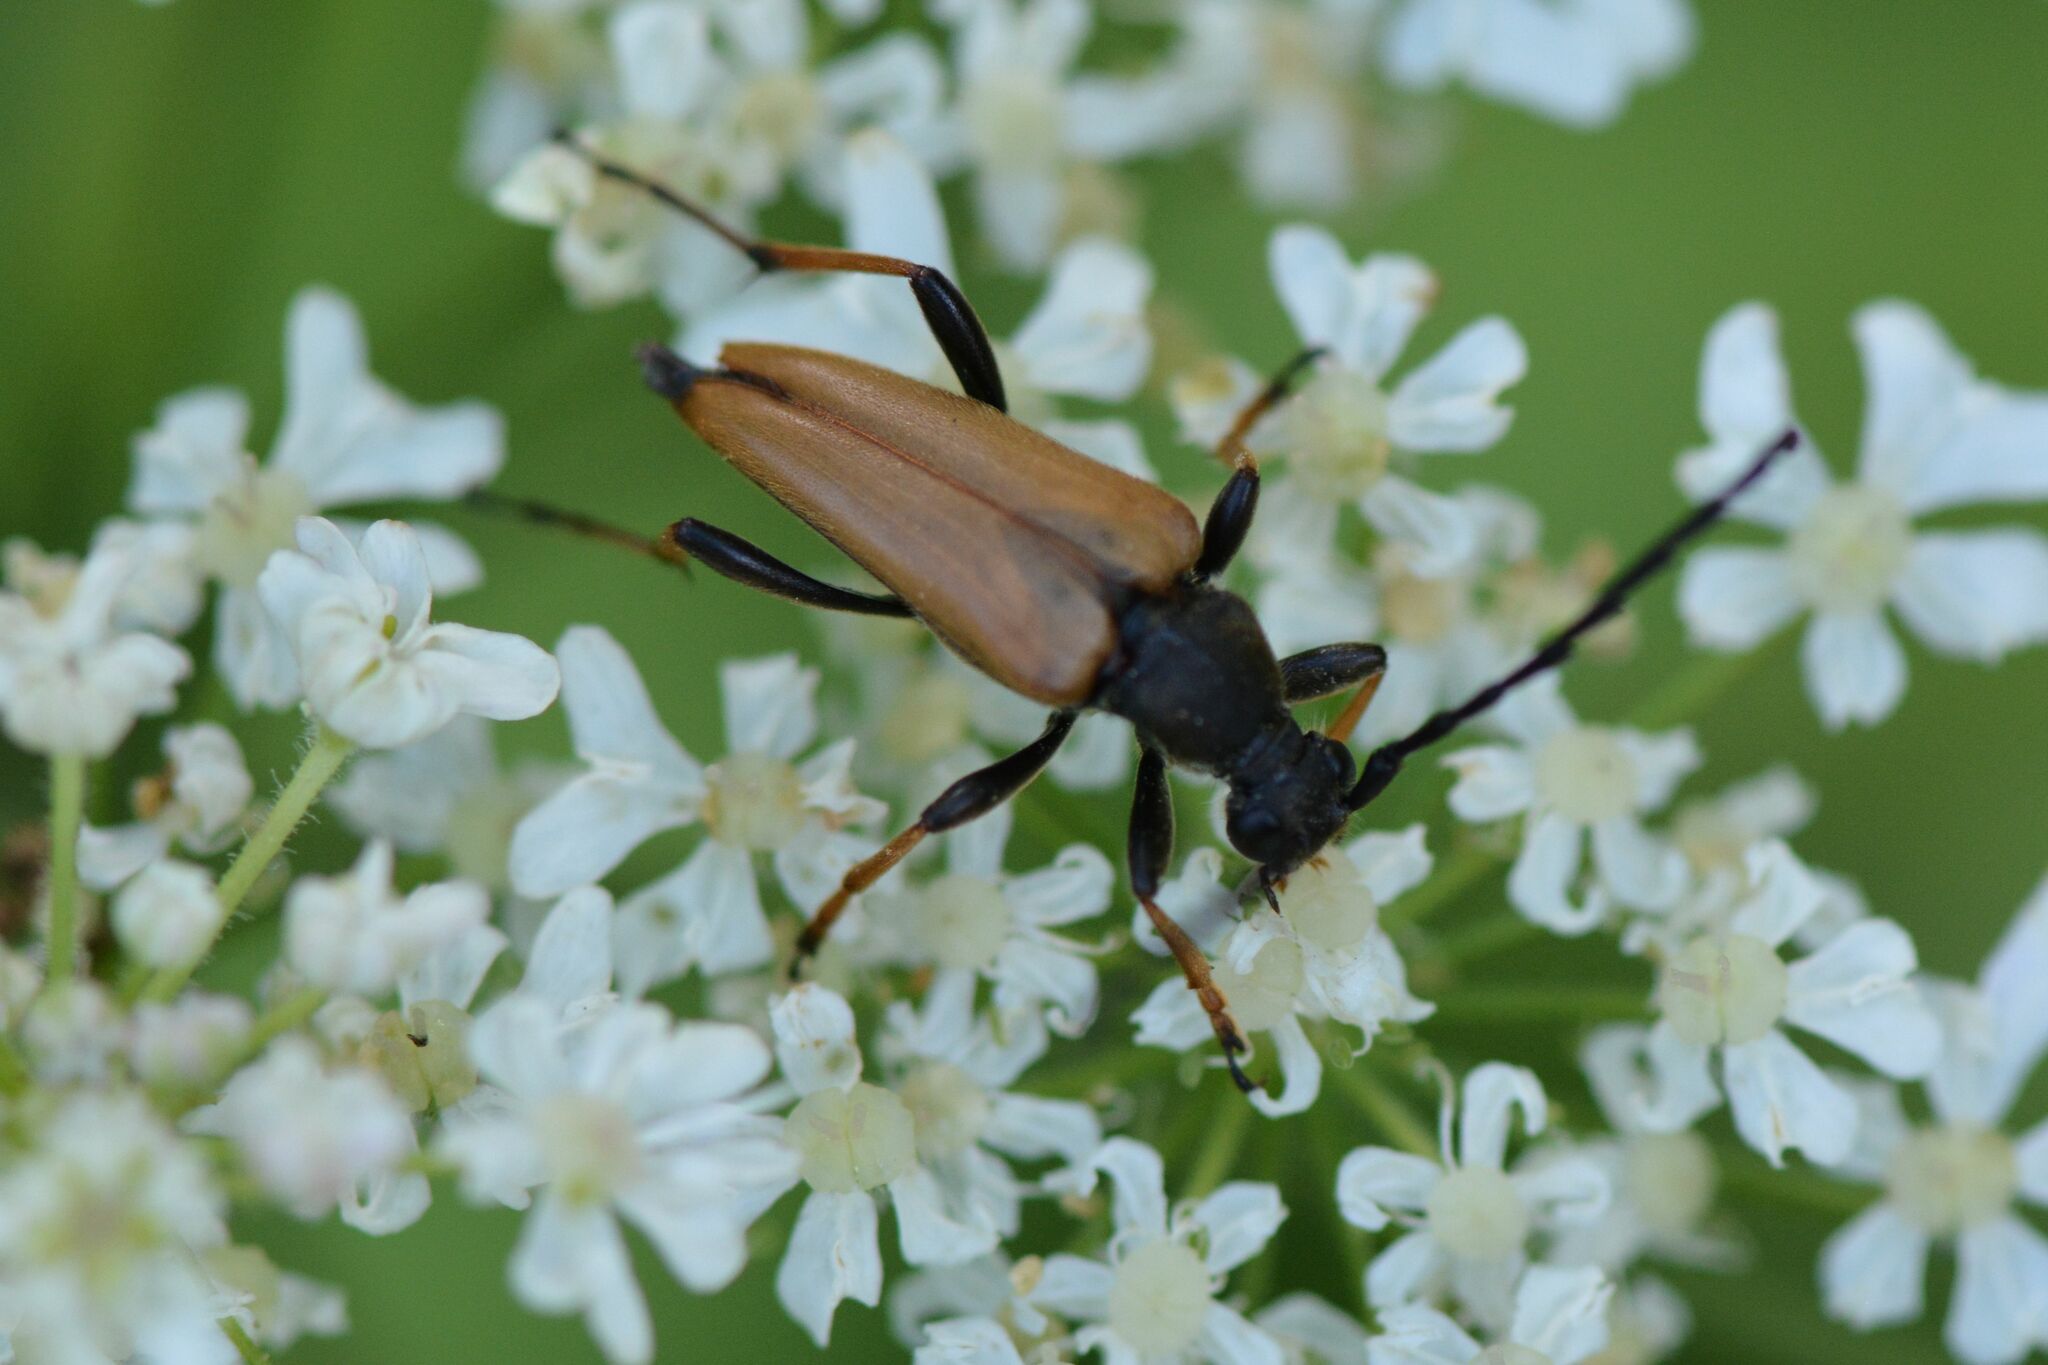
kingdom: Animalia
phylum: Arthropoda
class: Insecta
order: Coleoptera
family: Cerambycidae
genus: Stictoleptura
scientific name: Stictoleptura rubra
